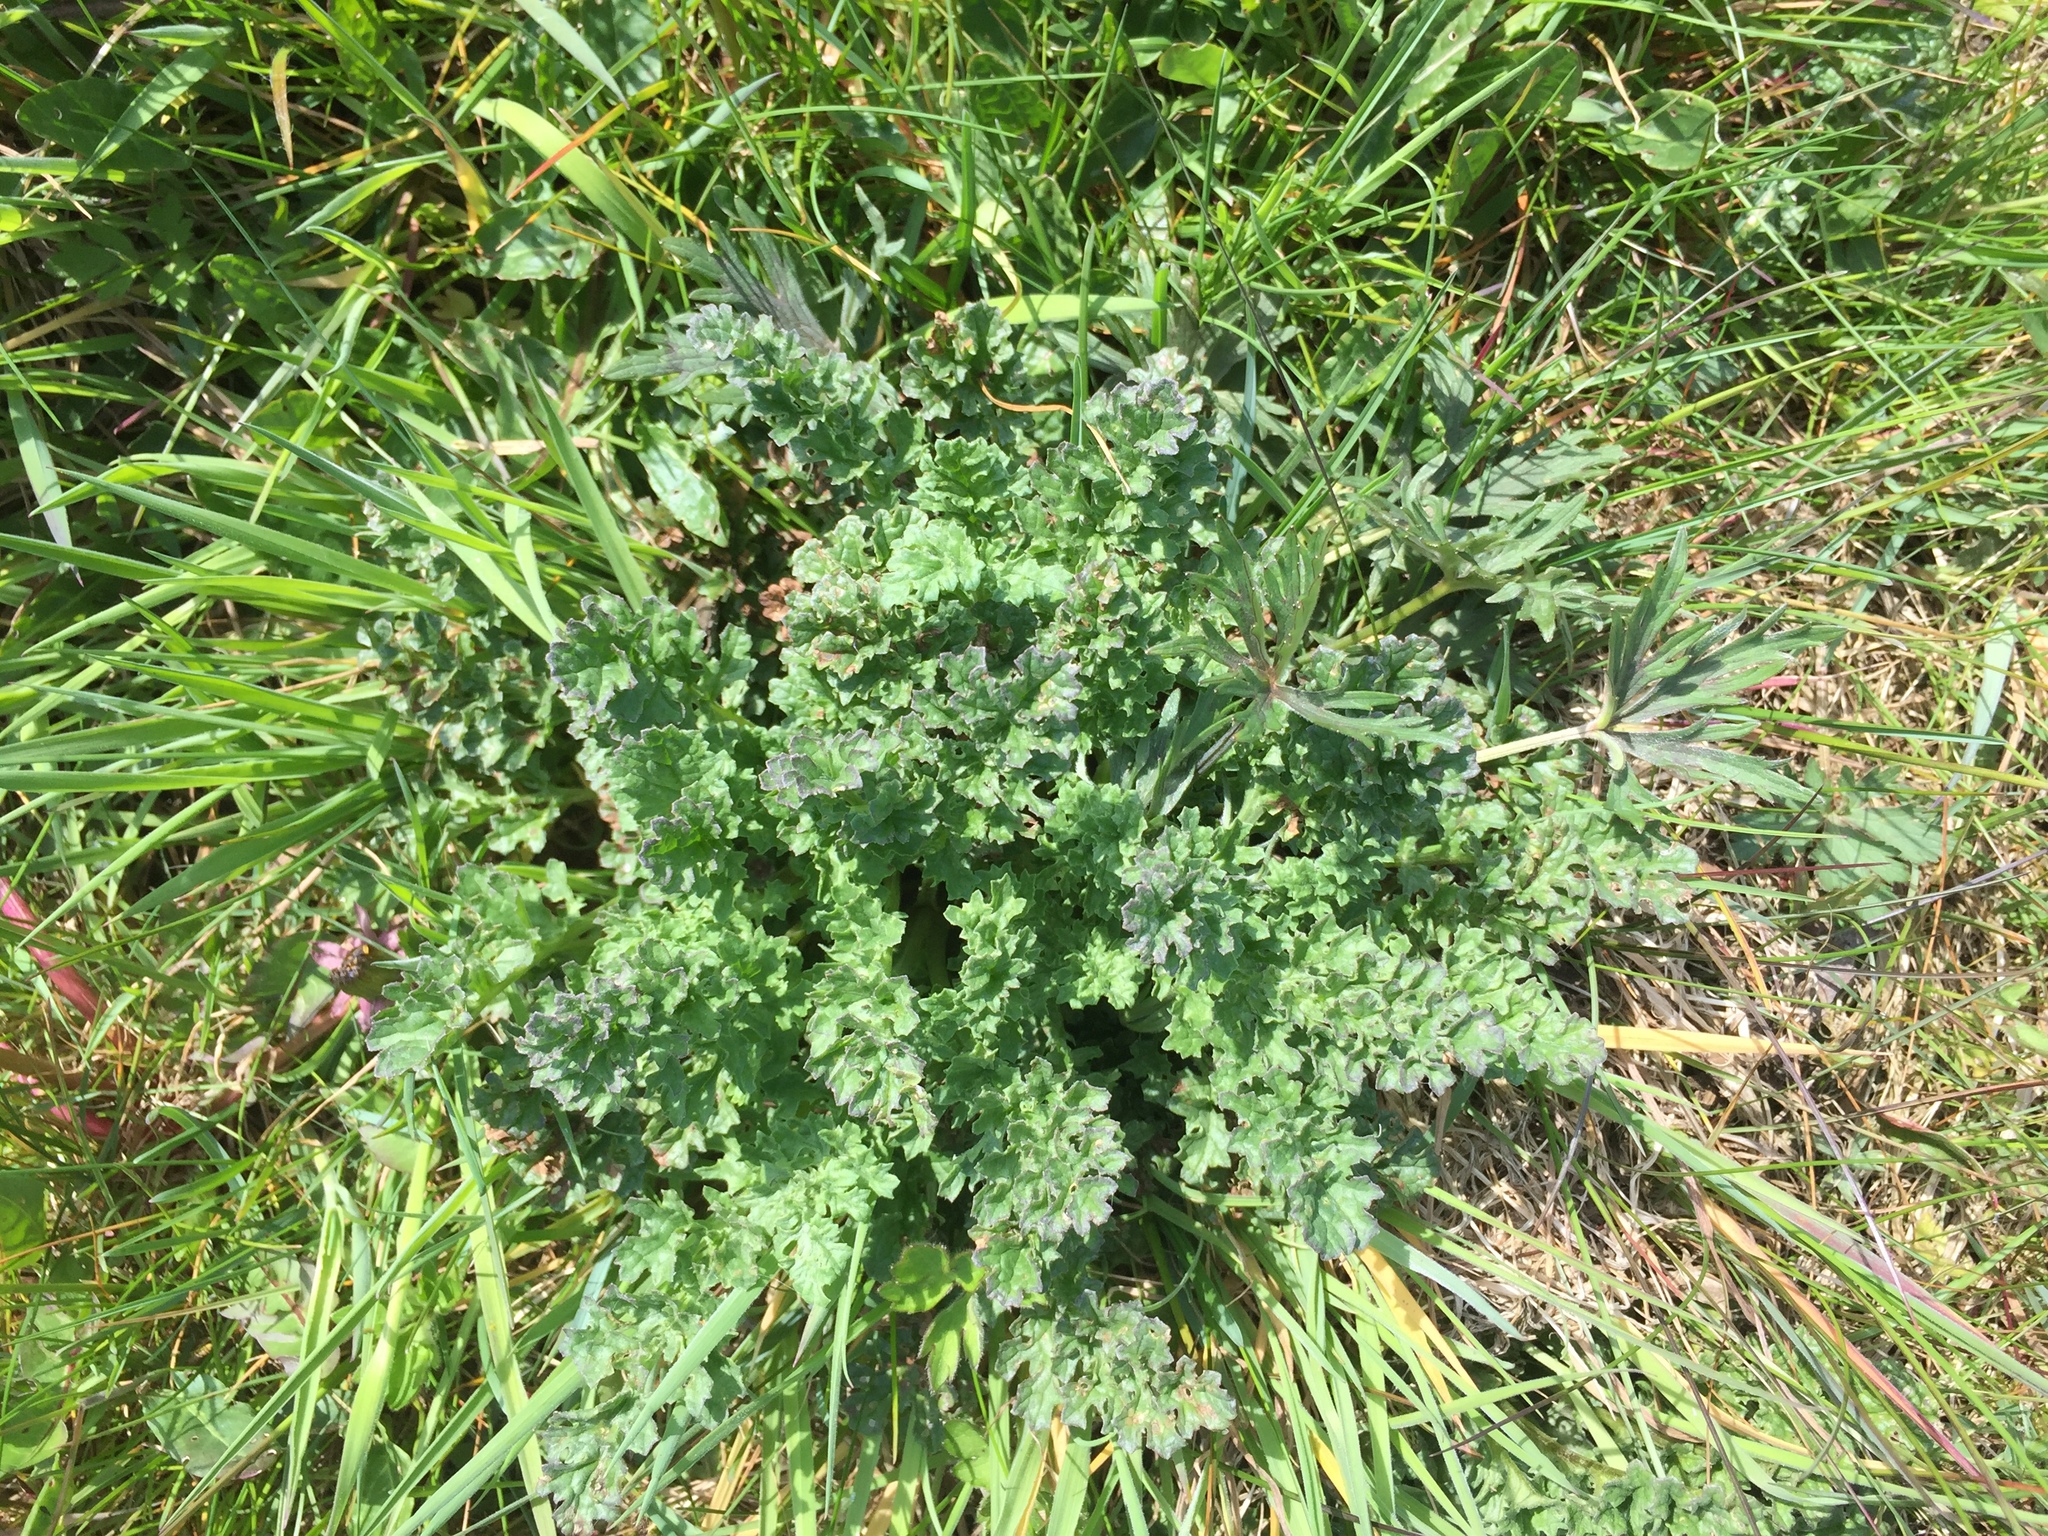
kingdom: Plantae
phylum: Tracheophyta
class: Magnoliopsida
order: Asterales
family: Asteraceae
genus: Jacobaea
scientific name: Jacobaea vulgaris
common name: Stinking willie
